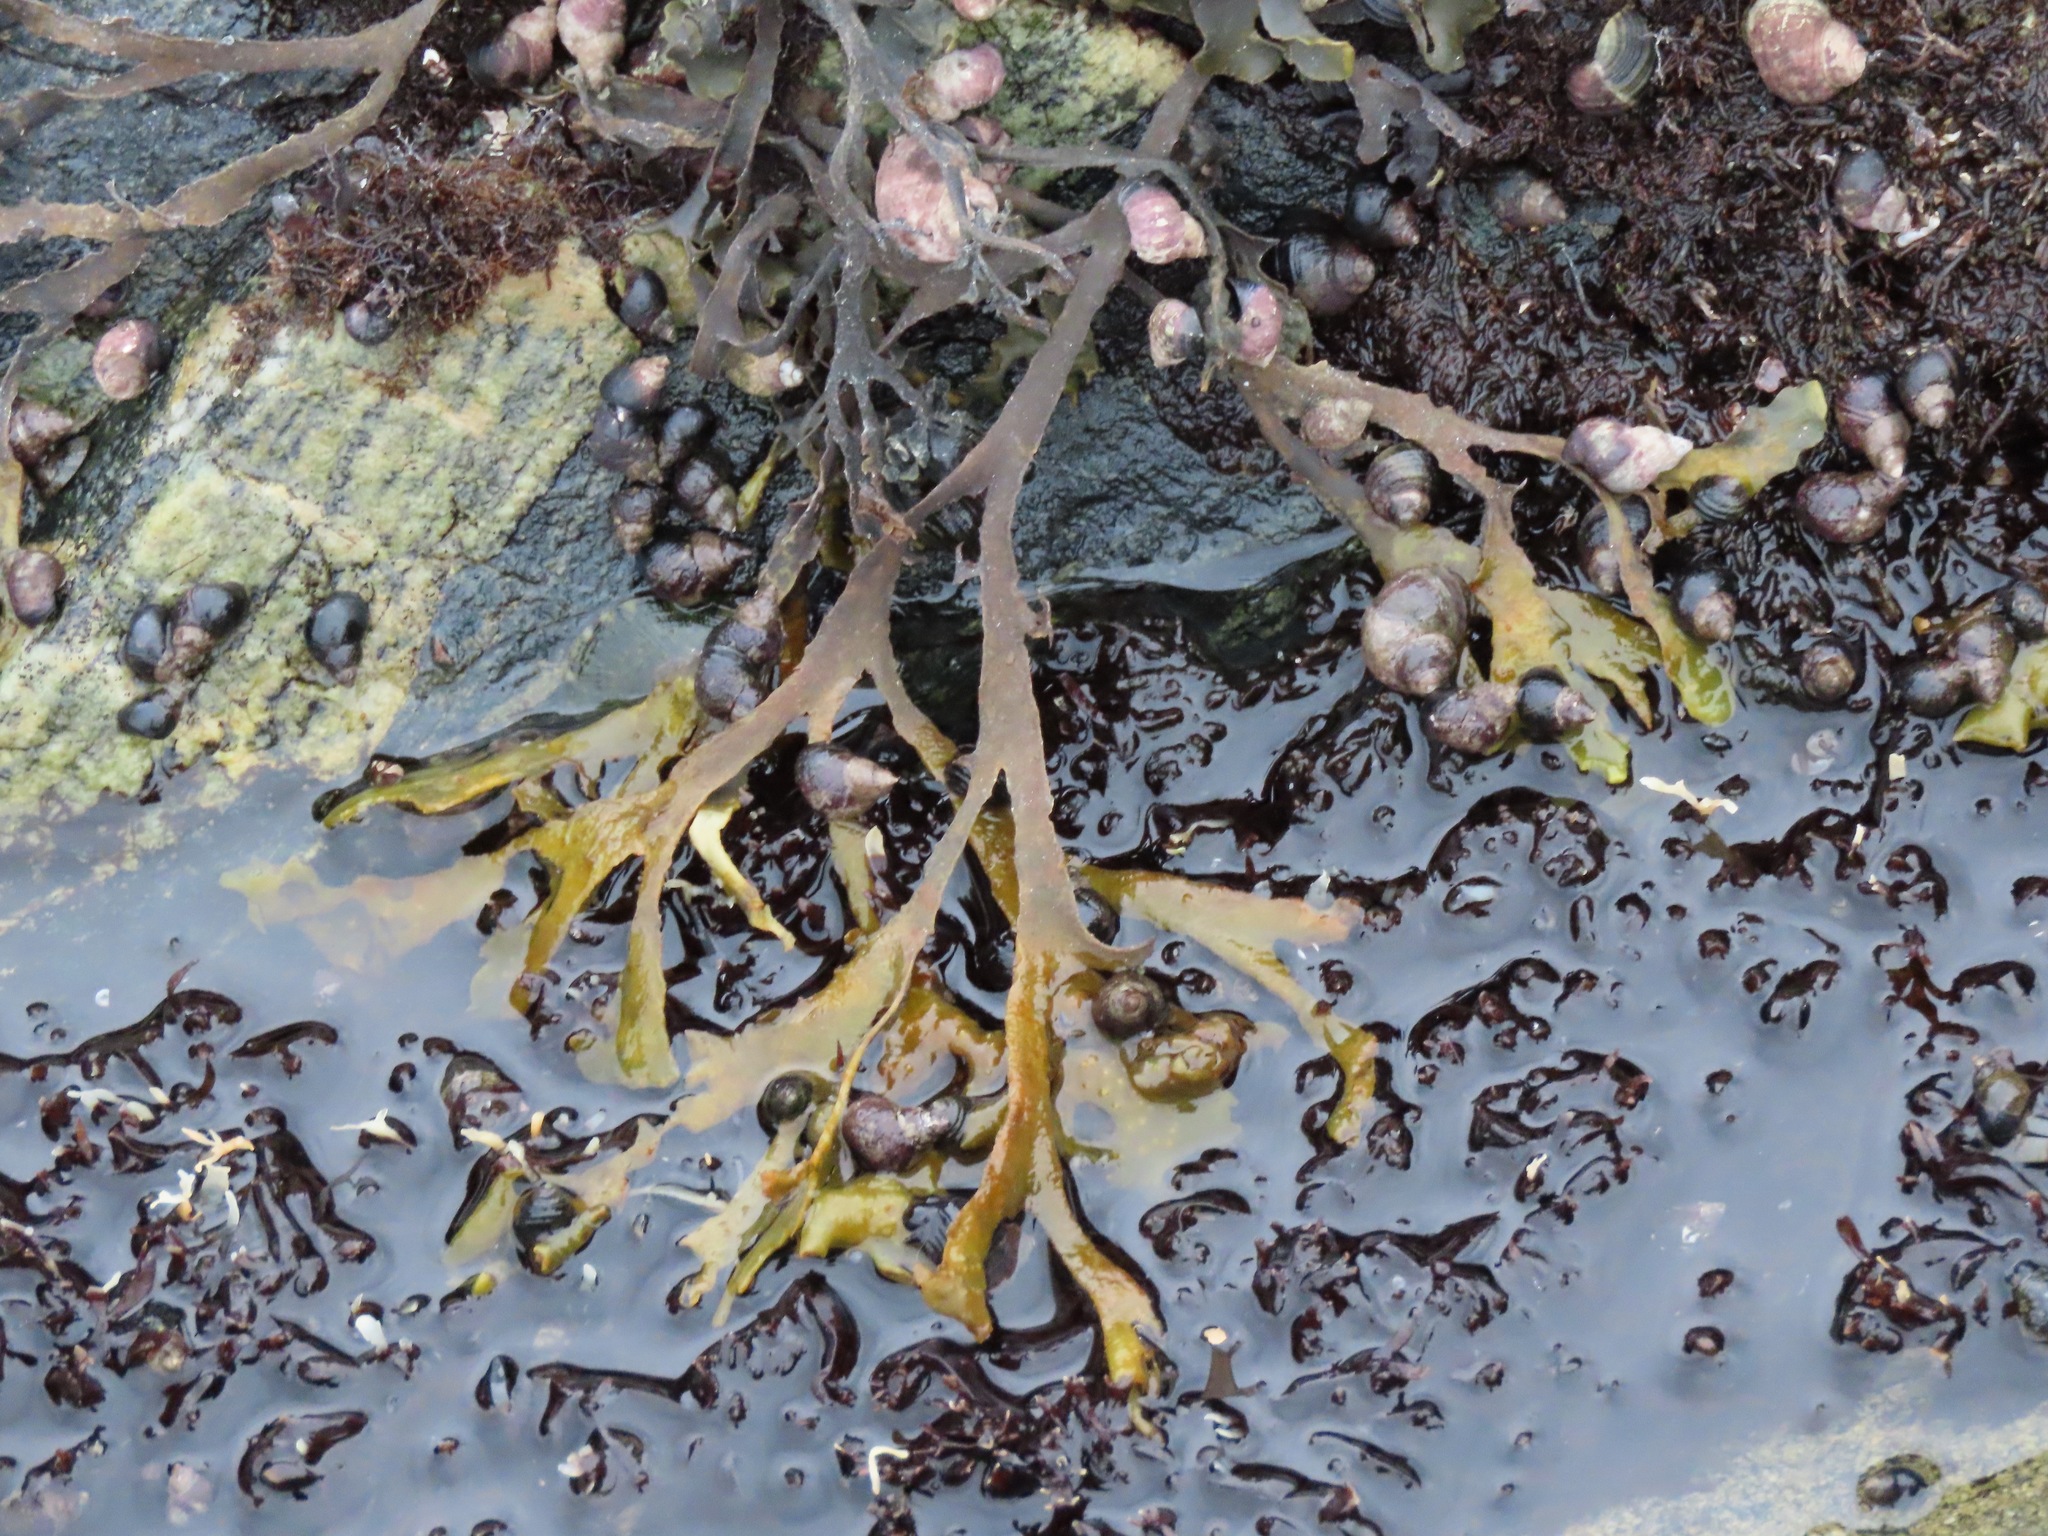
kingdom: Chromista
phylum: Ochrophyta
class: Phaeophyceae
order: Fucales
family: Fucaceae
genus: Fucus
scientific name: Fucus distichus
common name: Rockweed
